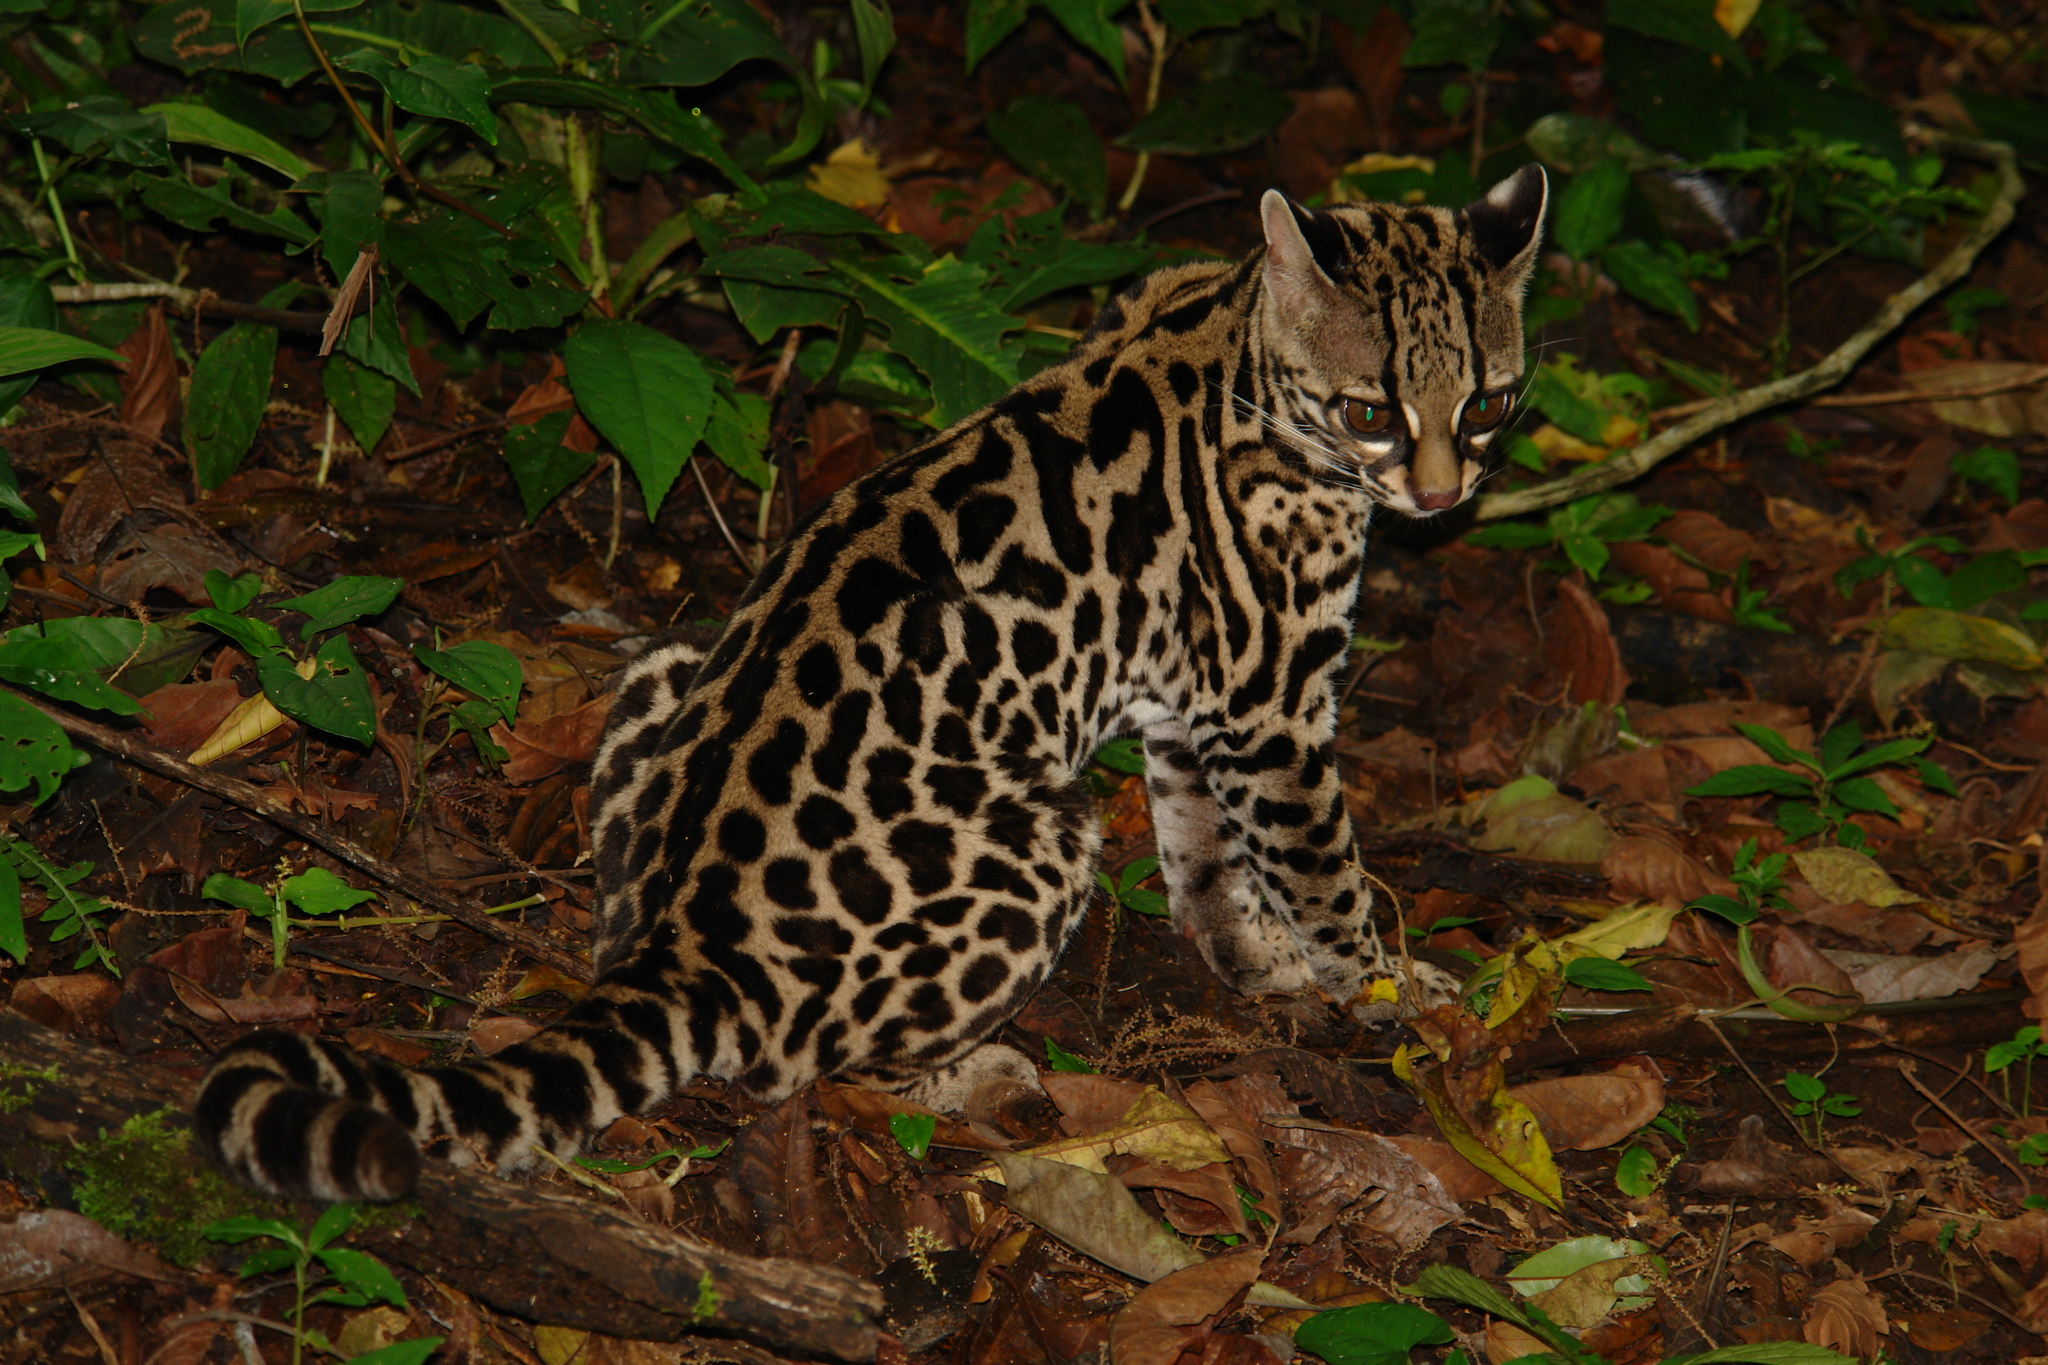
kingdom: Animalia
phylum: Chordata
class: Mammalia
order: Carnivora
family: Felidae
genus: Leopardus
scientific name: Leopardus wiedii
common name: Margay
